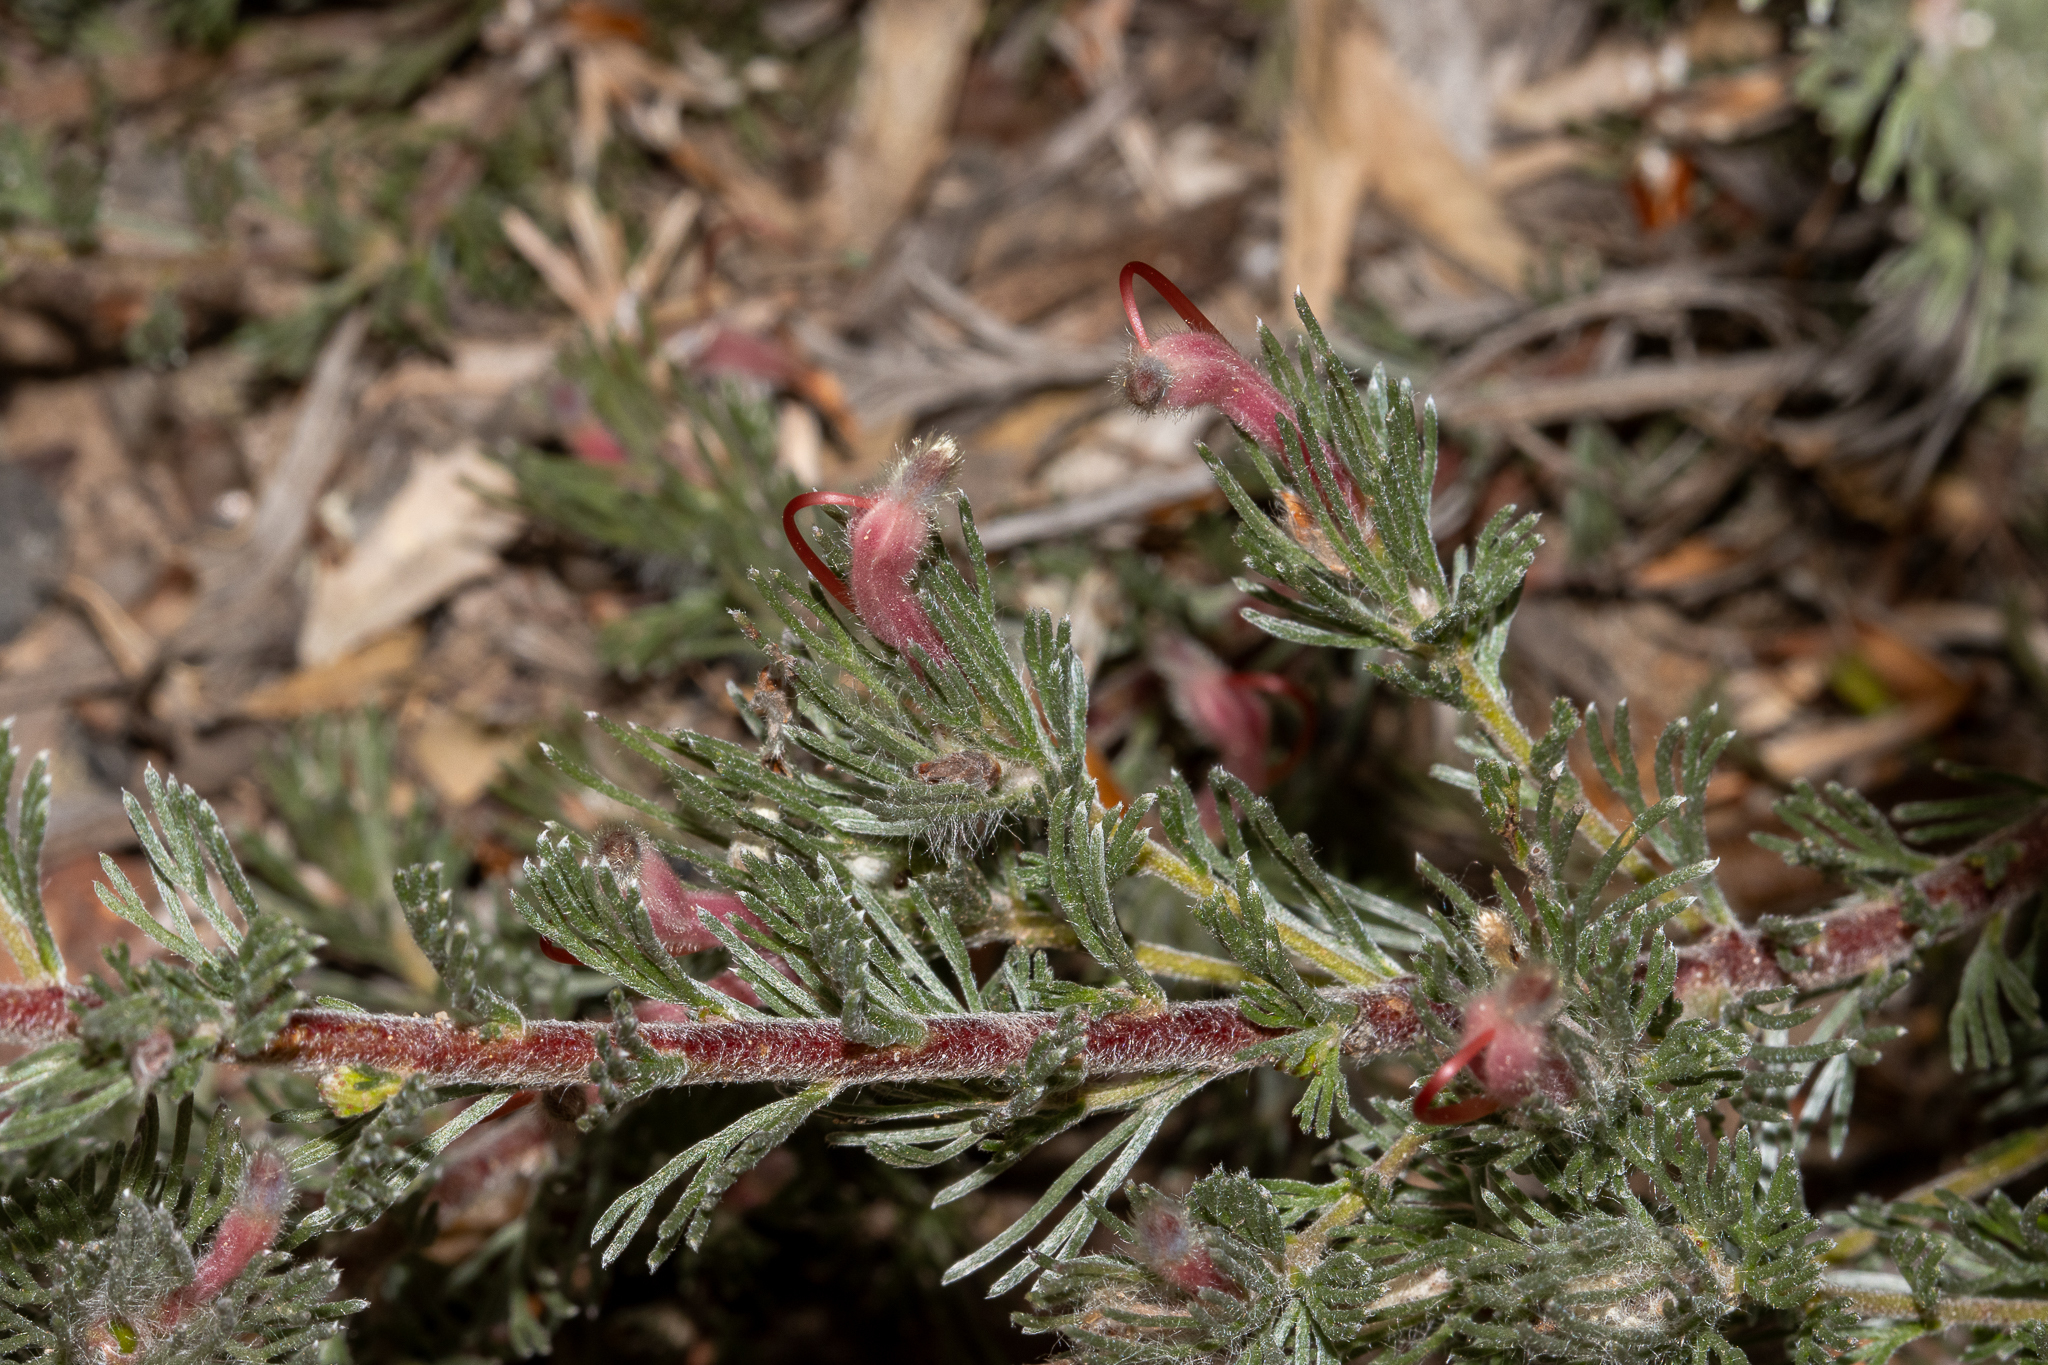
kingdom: Plantae
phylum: Tracheophyta
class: Magnoliopsida
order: Proteales
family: Proteaceae
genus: Adenanthos
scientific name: Adenanthos macropodianus
